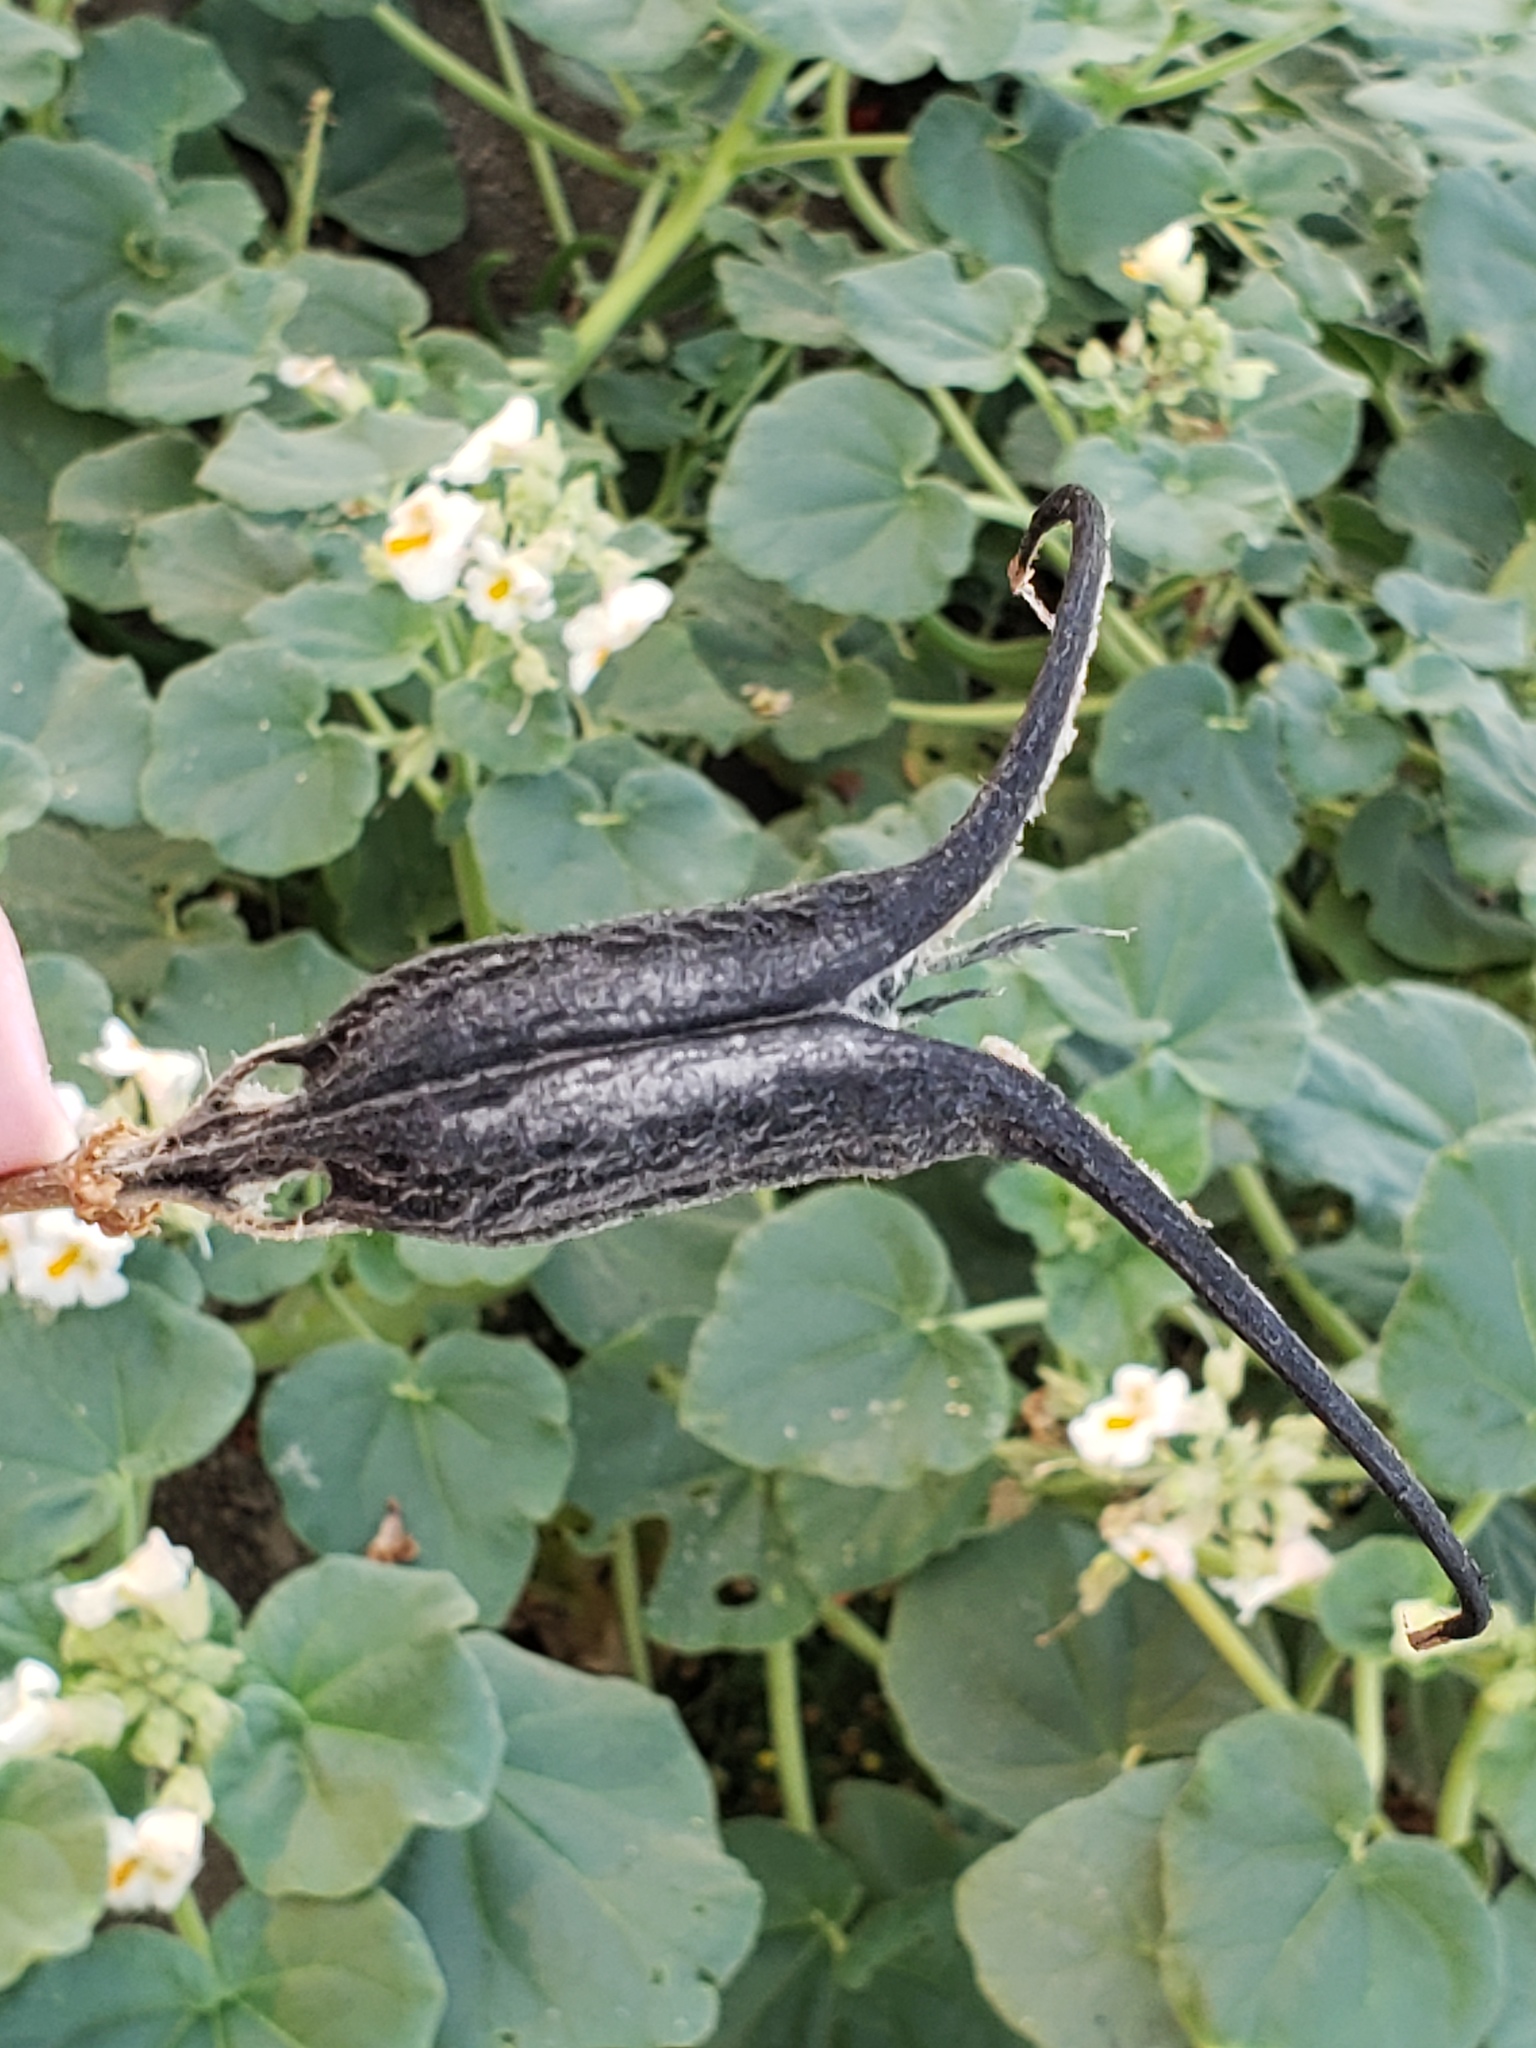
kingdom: Plantae
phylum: Tracheophyta
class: Magnoliopsida
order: Lamiales
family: Martyniaceae
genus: Proboscidea
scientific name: Proboscidea louisianica
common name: Elephant tusks
